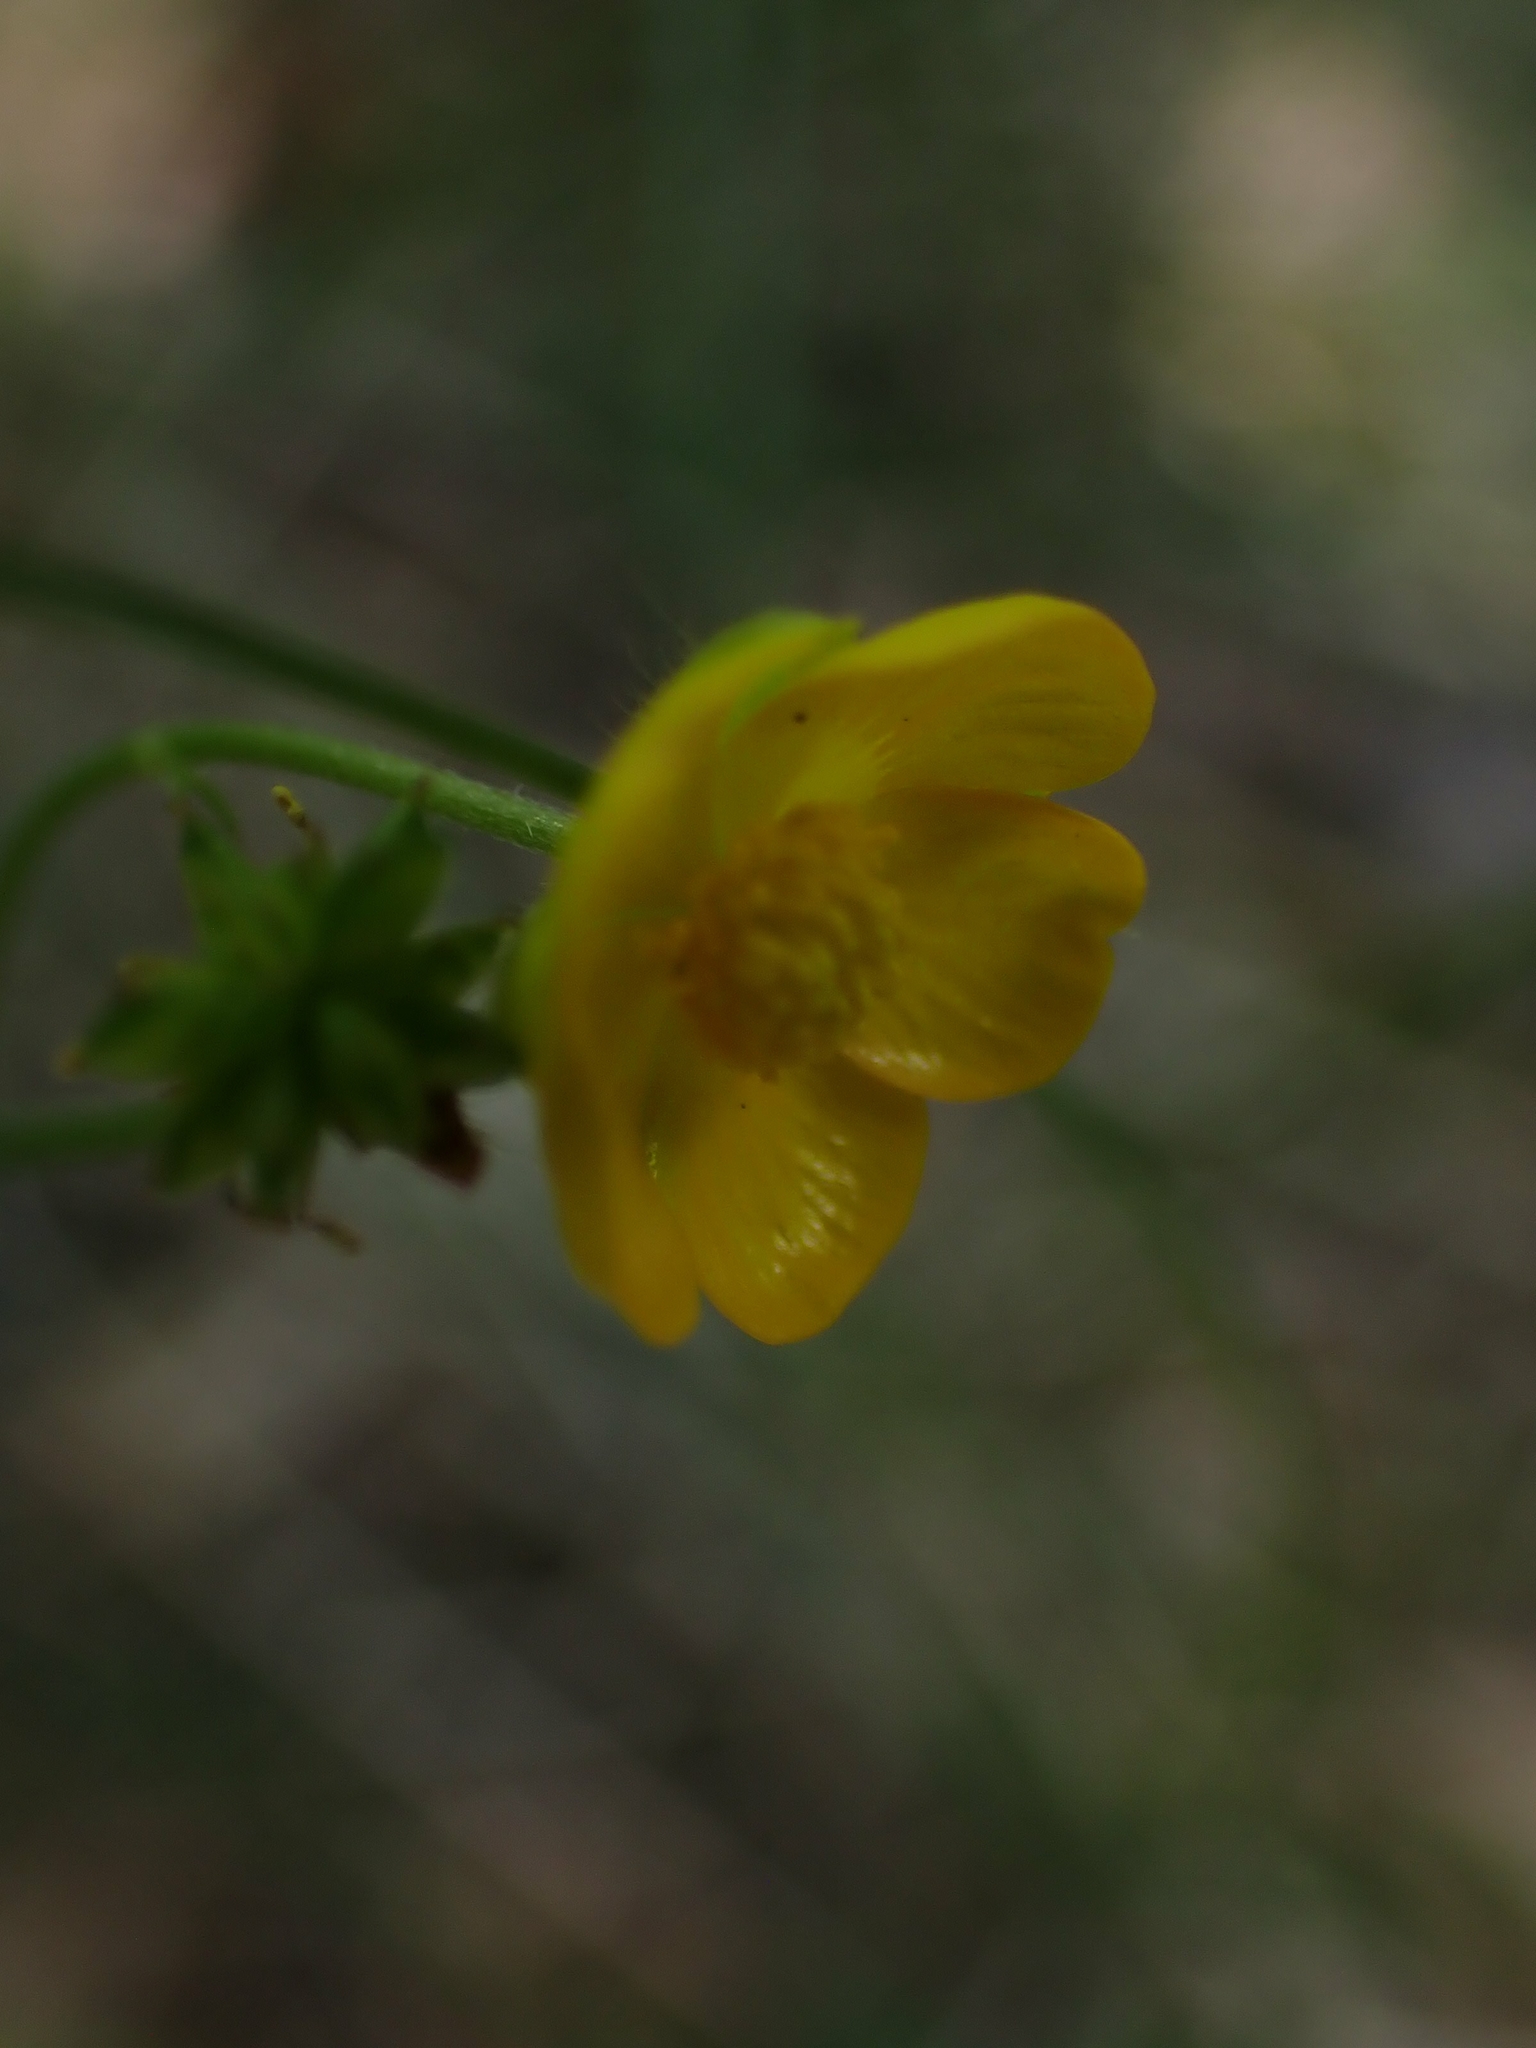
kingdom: Plantae
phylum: Tracheophyta
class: Magnoliopsida
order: Ranunculales
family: Ranunculaceae
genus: Ranunculus
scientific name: Ranunculus acris
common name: Meadow buttercup
